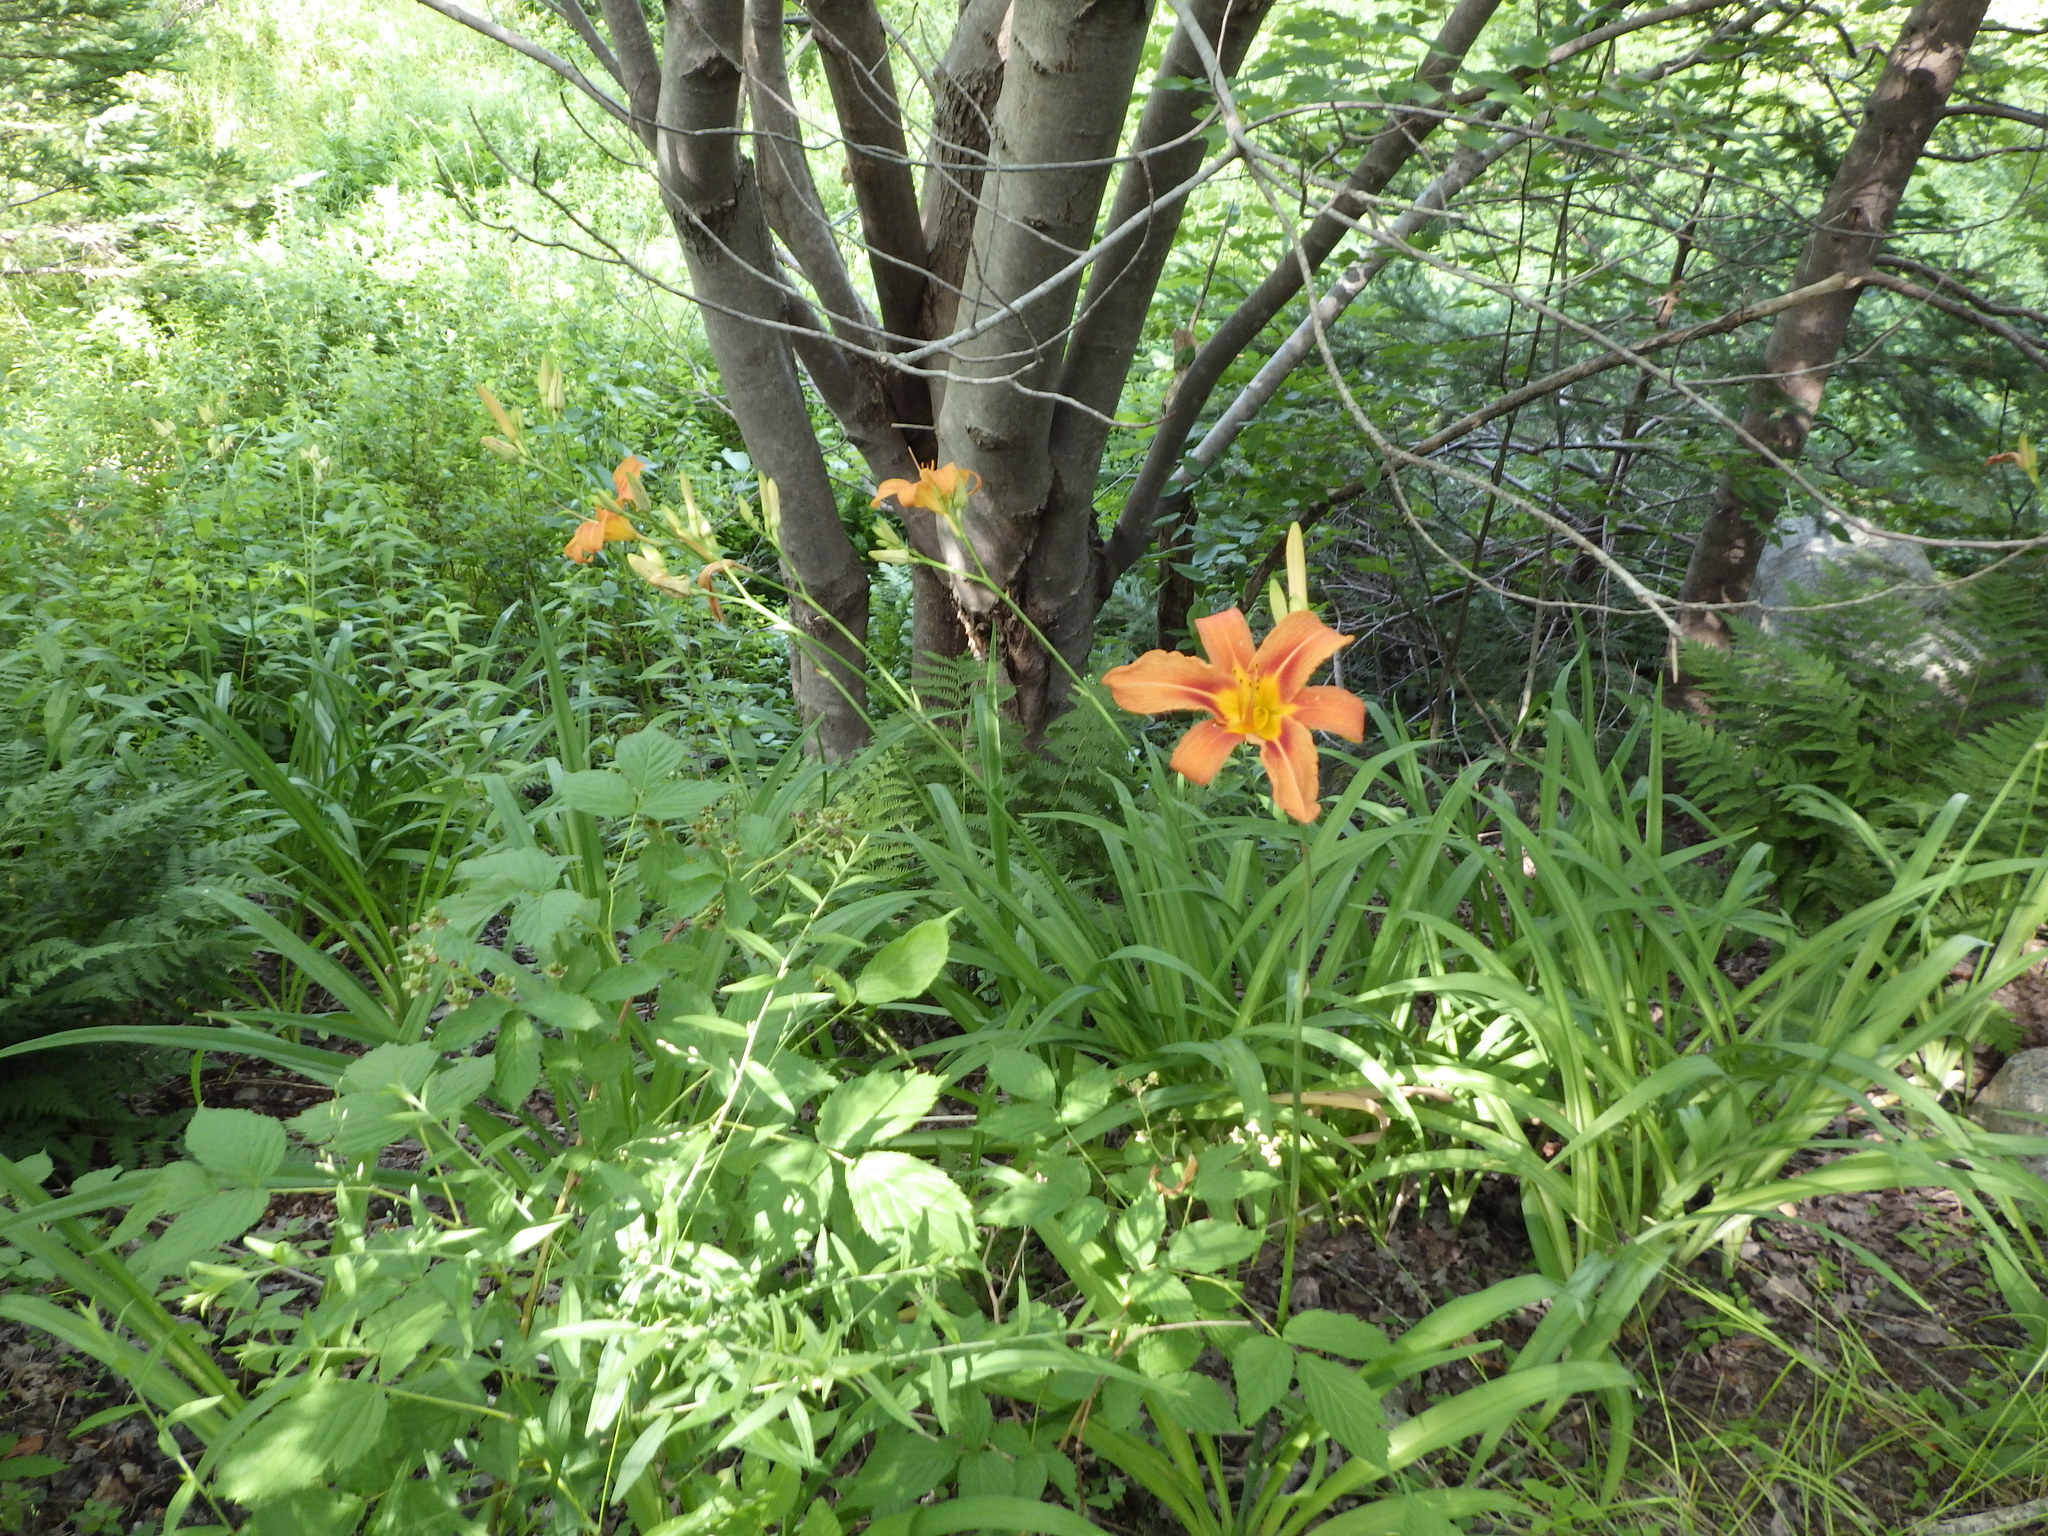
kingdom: Plantae
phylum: Tracheophyta
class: Liliopsida
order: Asparagales
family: Asphodelaceae
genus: Hemerocallis
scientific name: Hemerocallis fulva
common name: Orange day-lily
